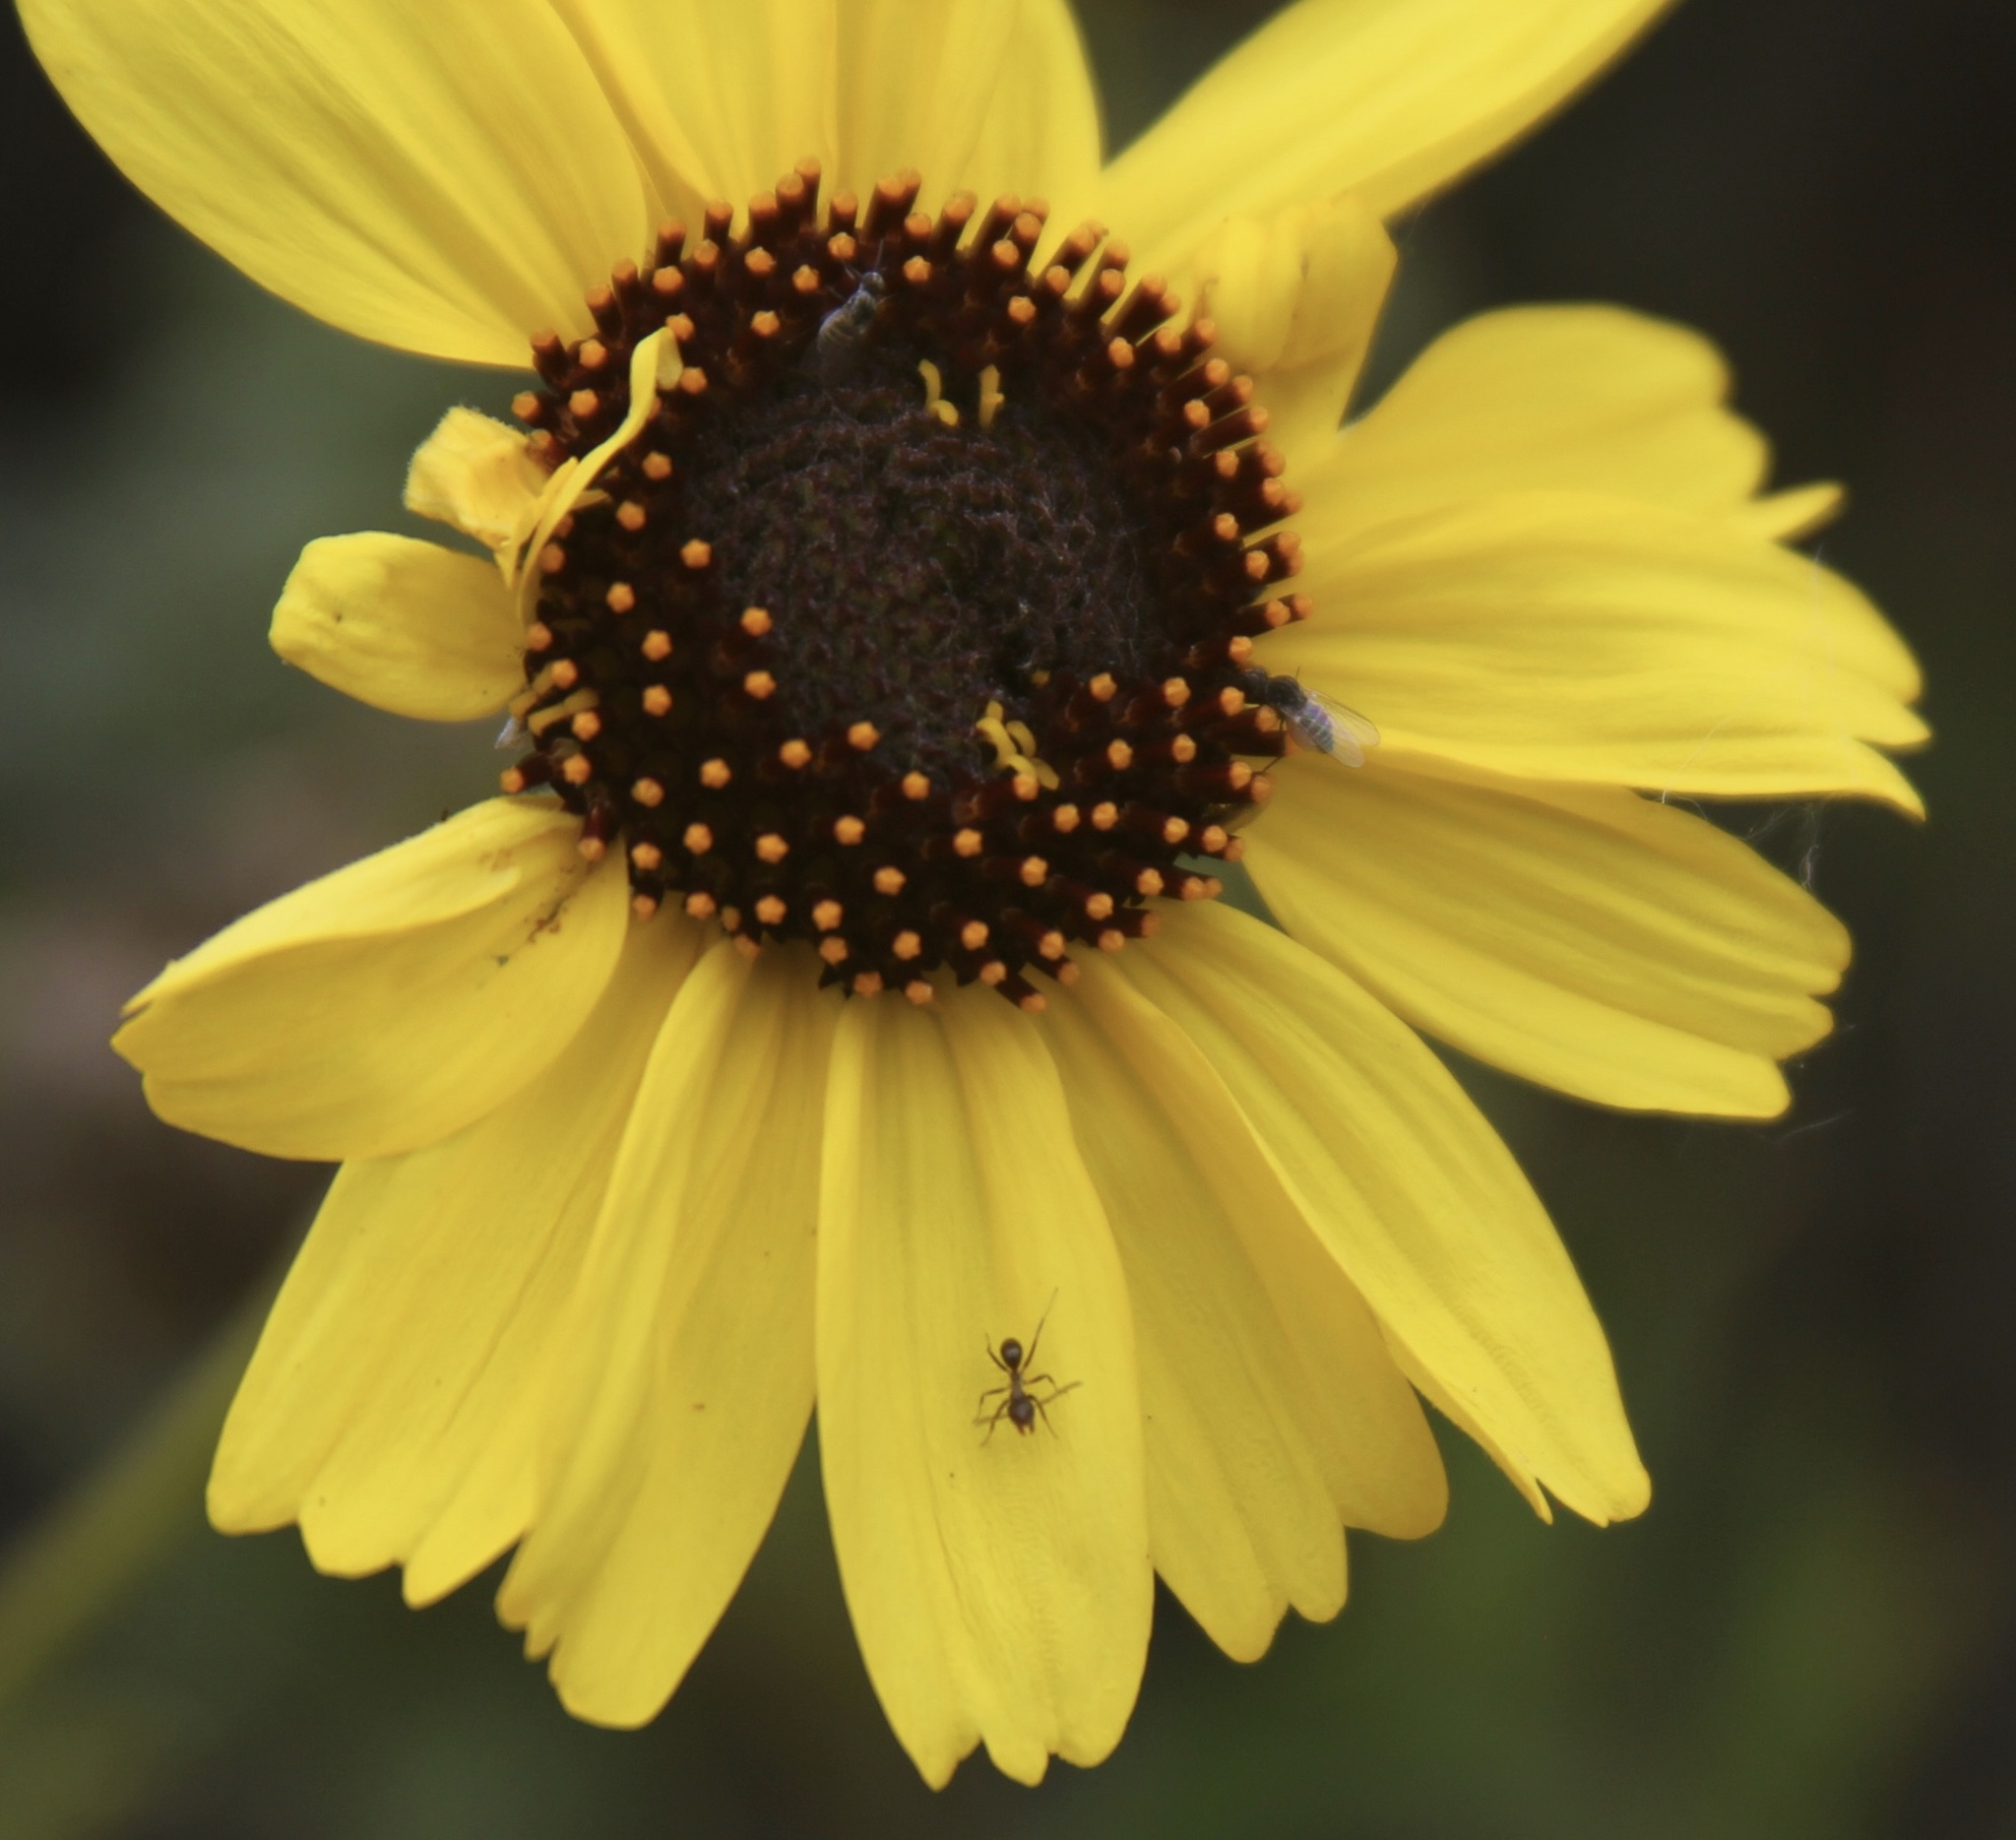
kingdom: Animalia
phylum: Arthropoda
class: Insecta
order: Hymenoptera
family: Formicidae
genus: Linepithema
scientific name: Linepithema humile
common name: Argentine ant
